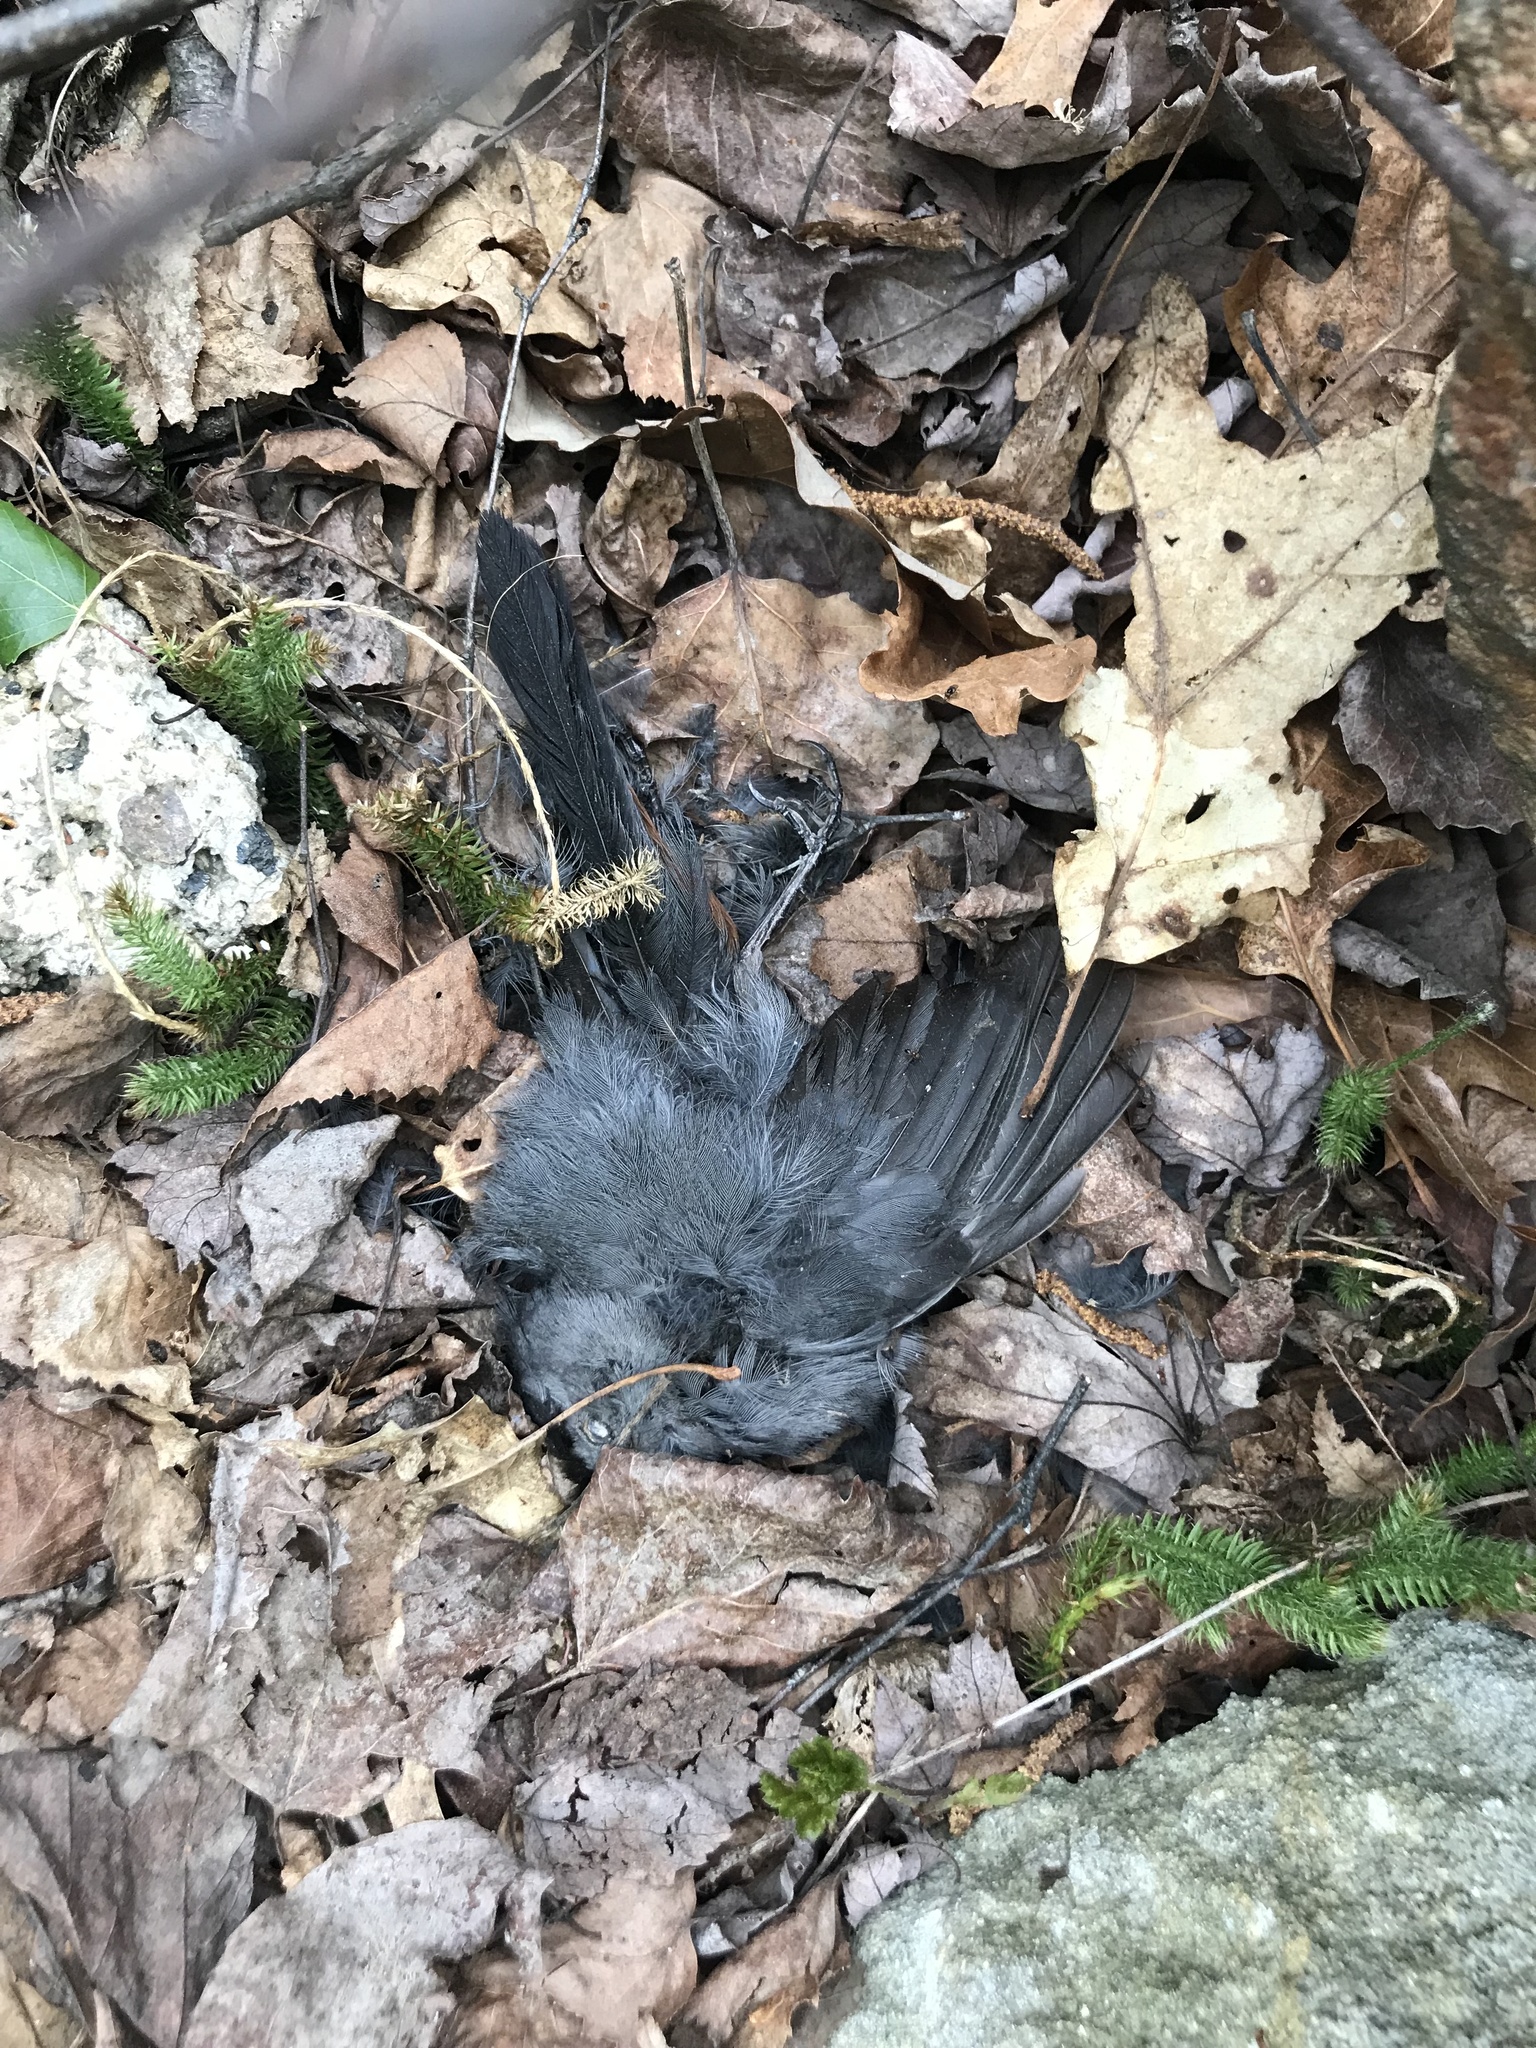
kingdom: Animalia
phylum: Chordata
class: Aves
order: Passeriformes
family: Mimidae
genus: Dumetella
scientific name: Dumetella carolinensis
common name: Gray catbird
